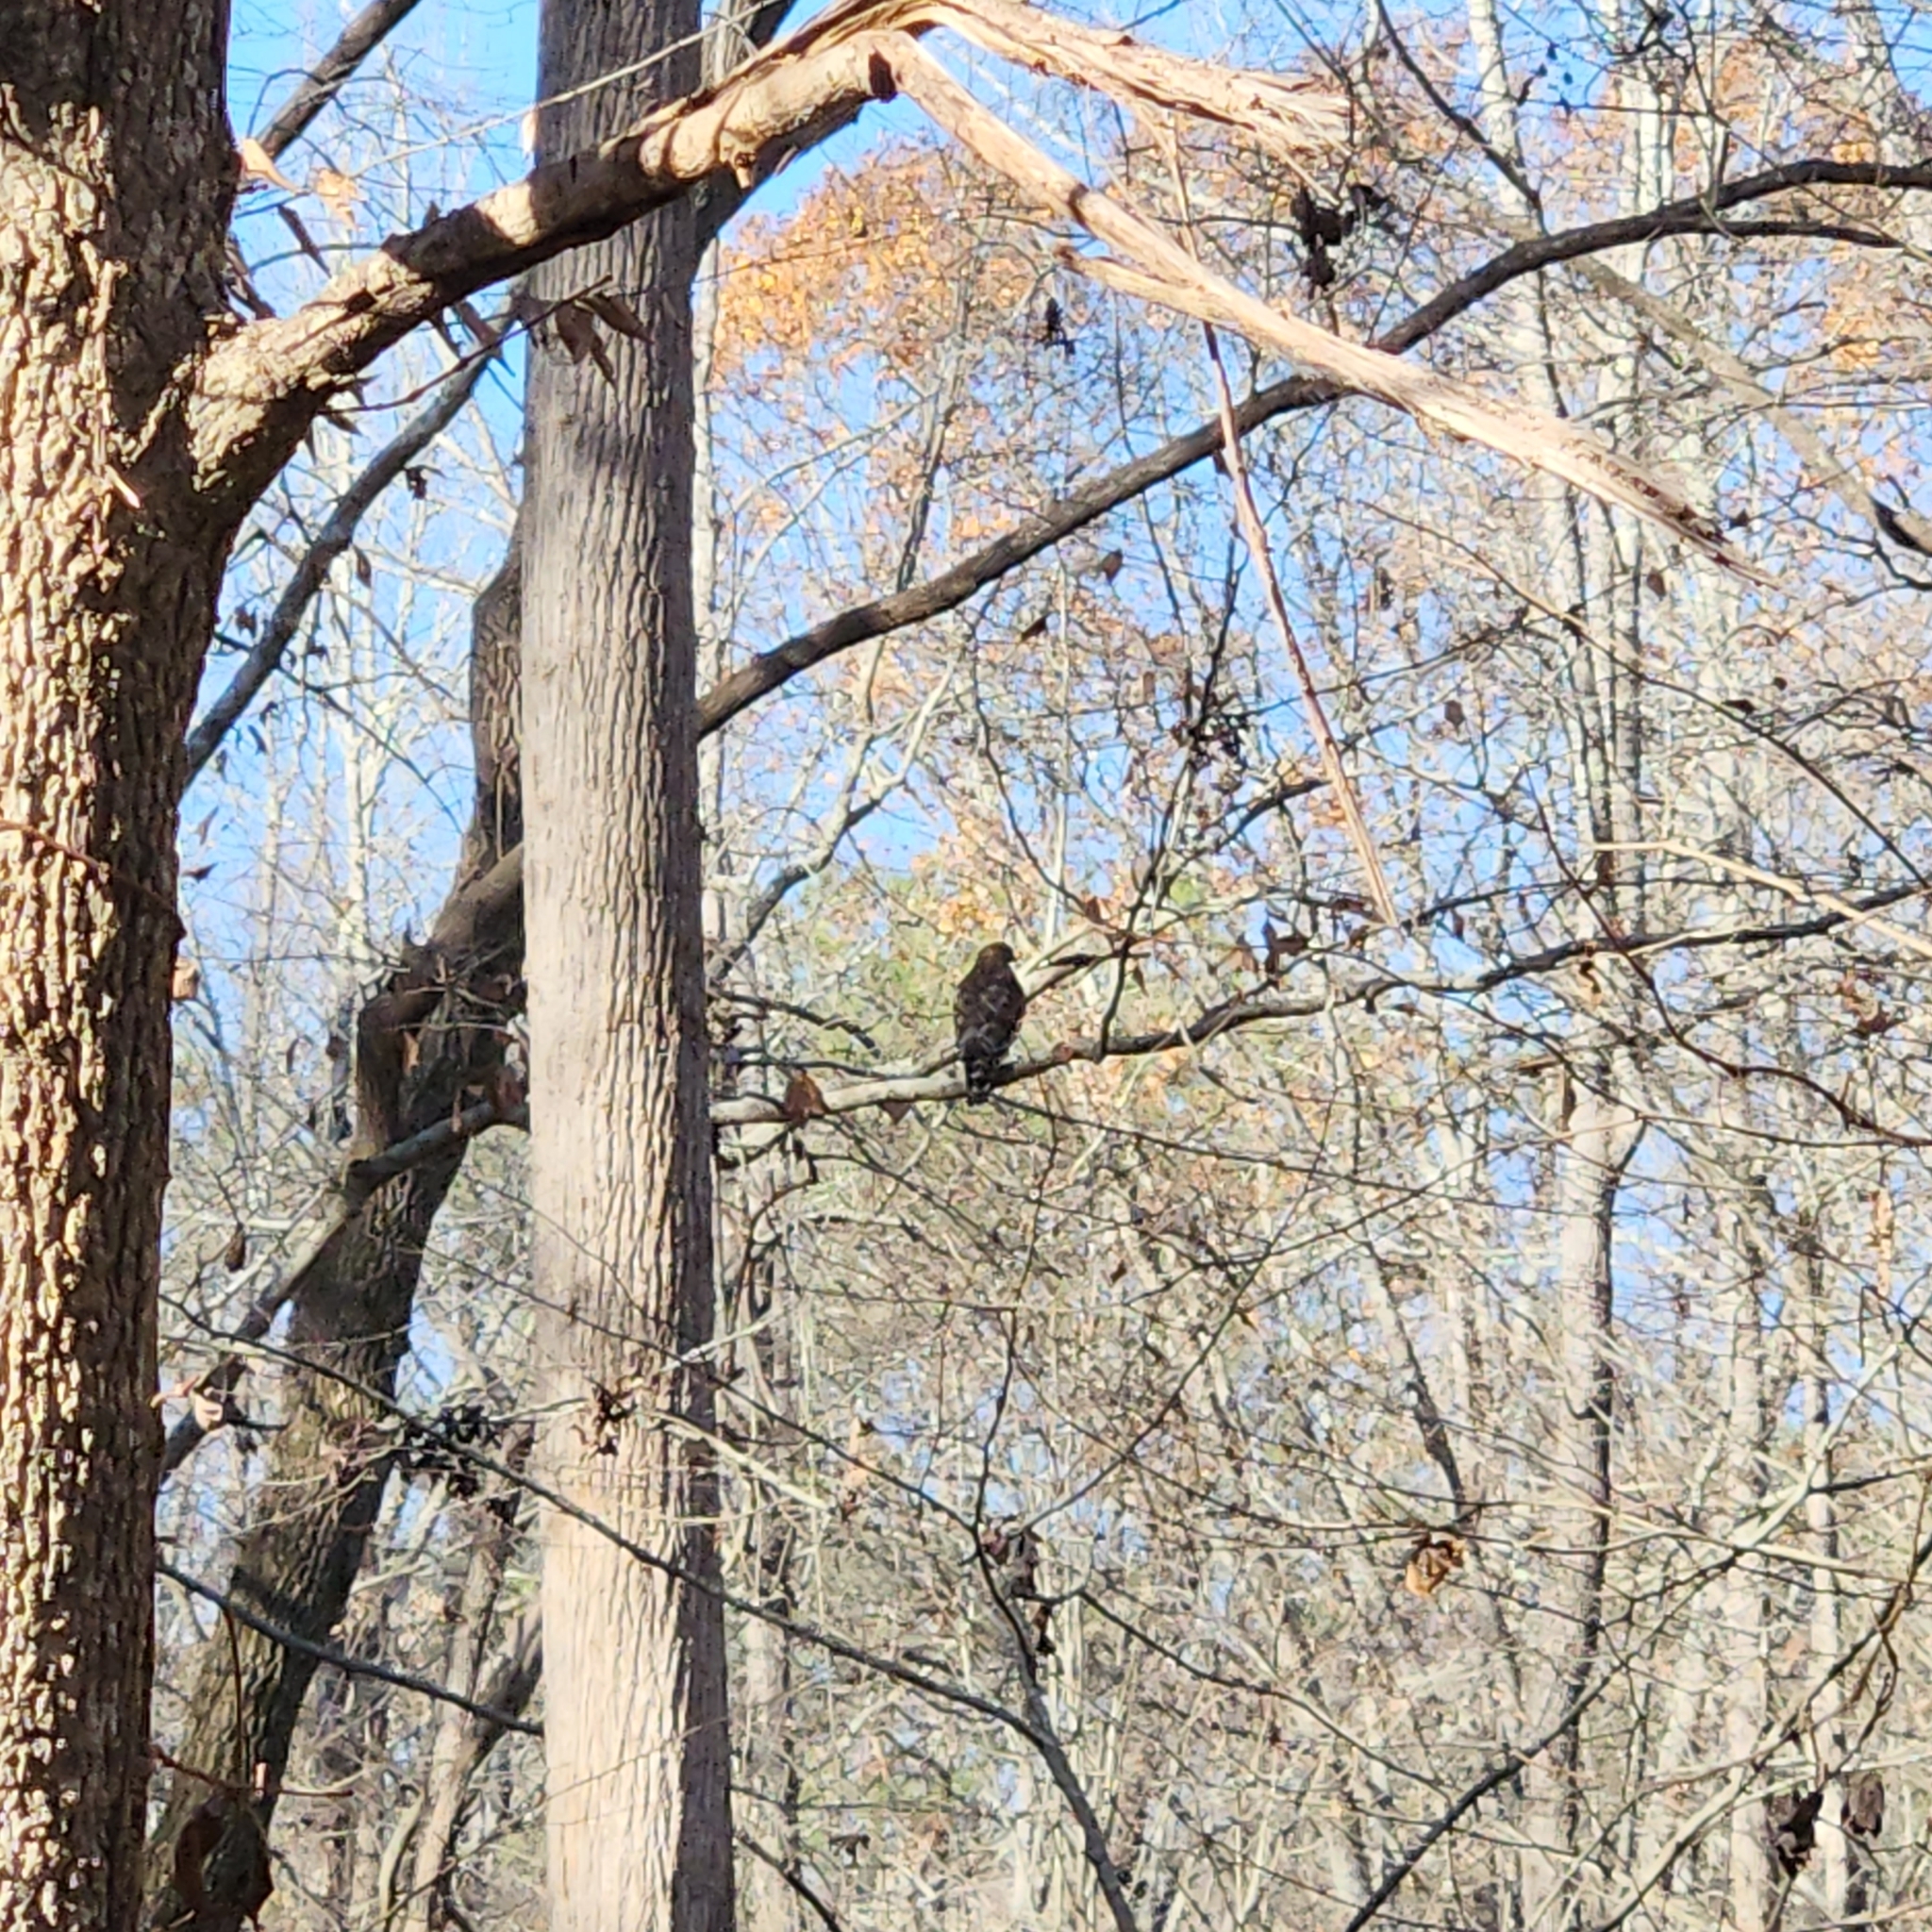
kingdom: Animalia
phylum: Chordata
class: Aves
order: Accipitriformes
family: Accipitridae
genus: Buteo
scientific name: Buteo lineatus
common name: Red-shouldered hawk
